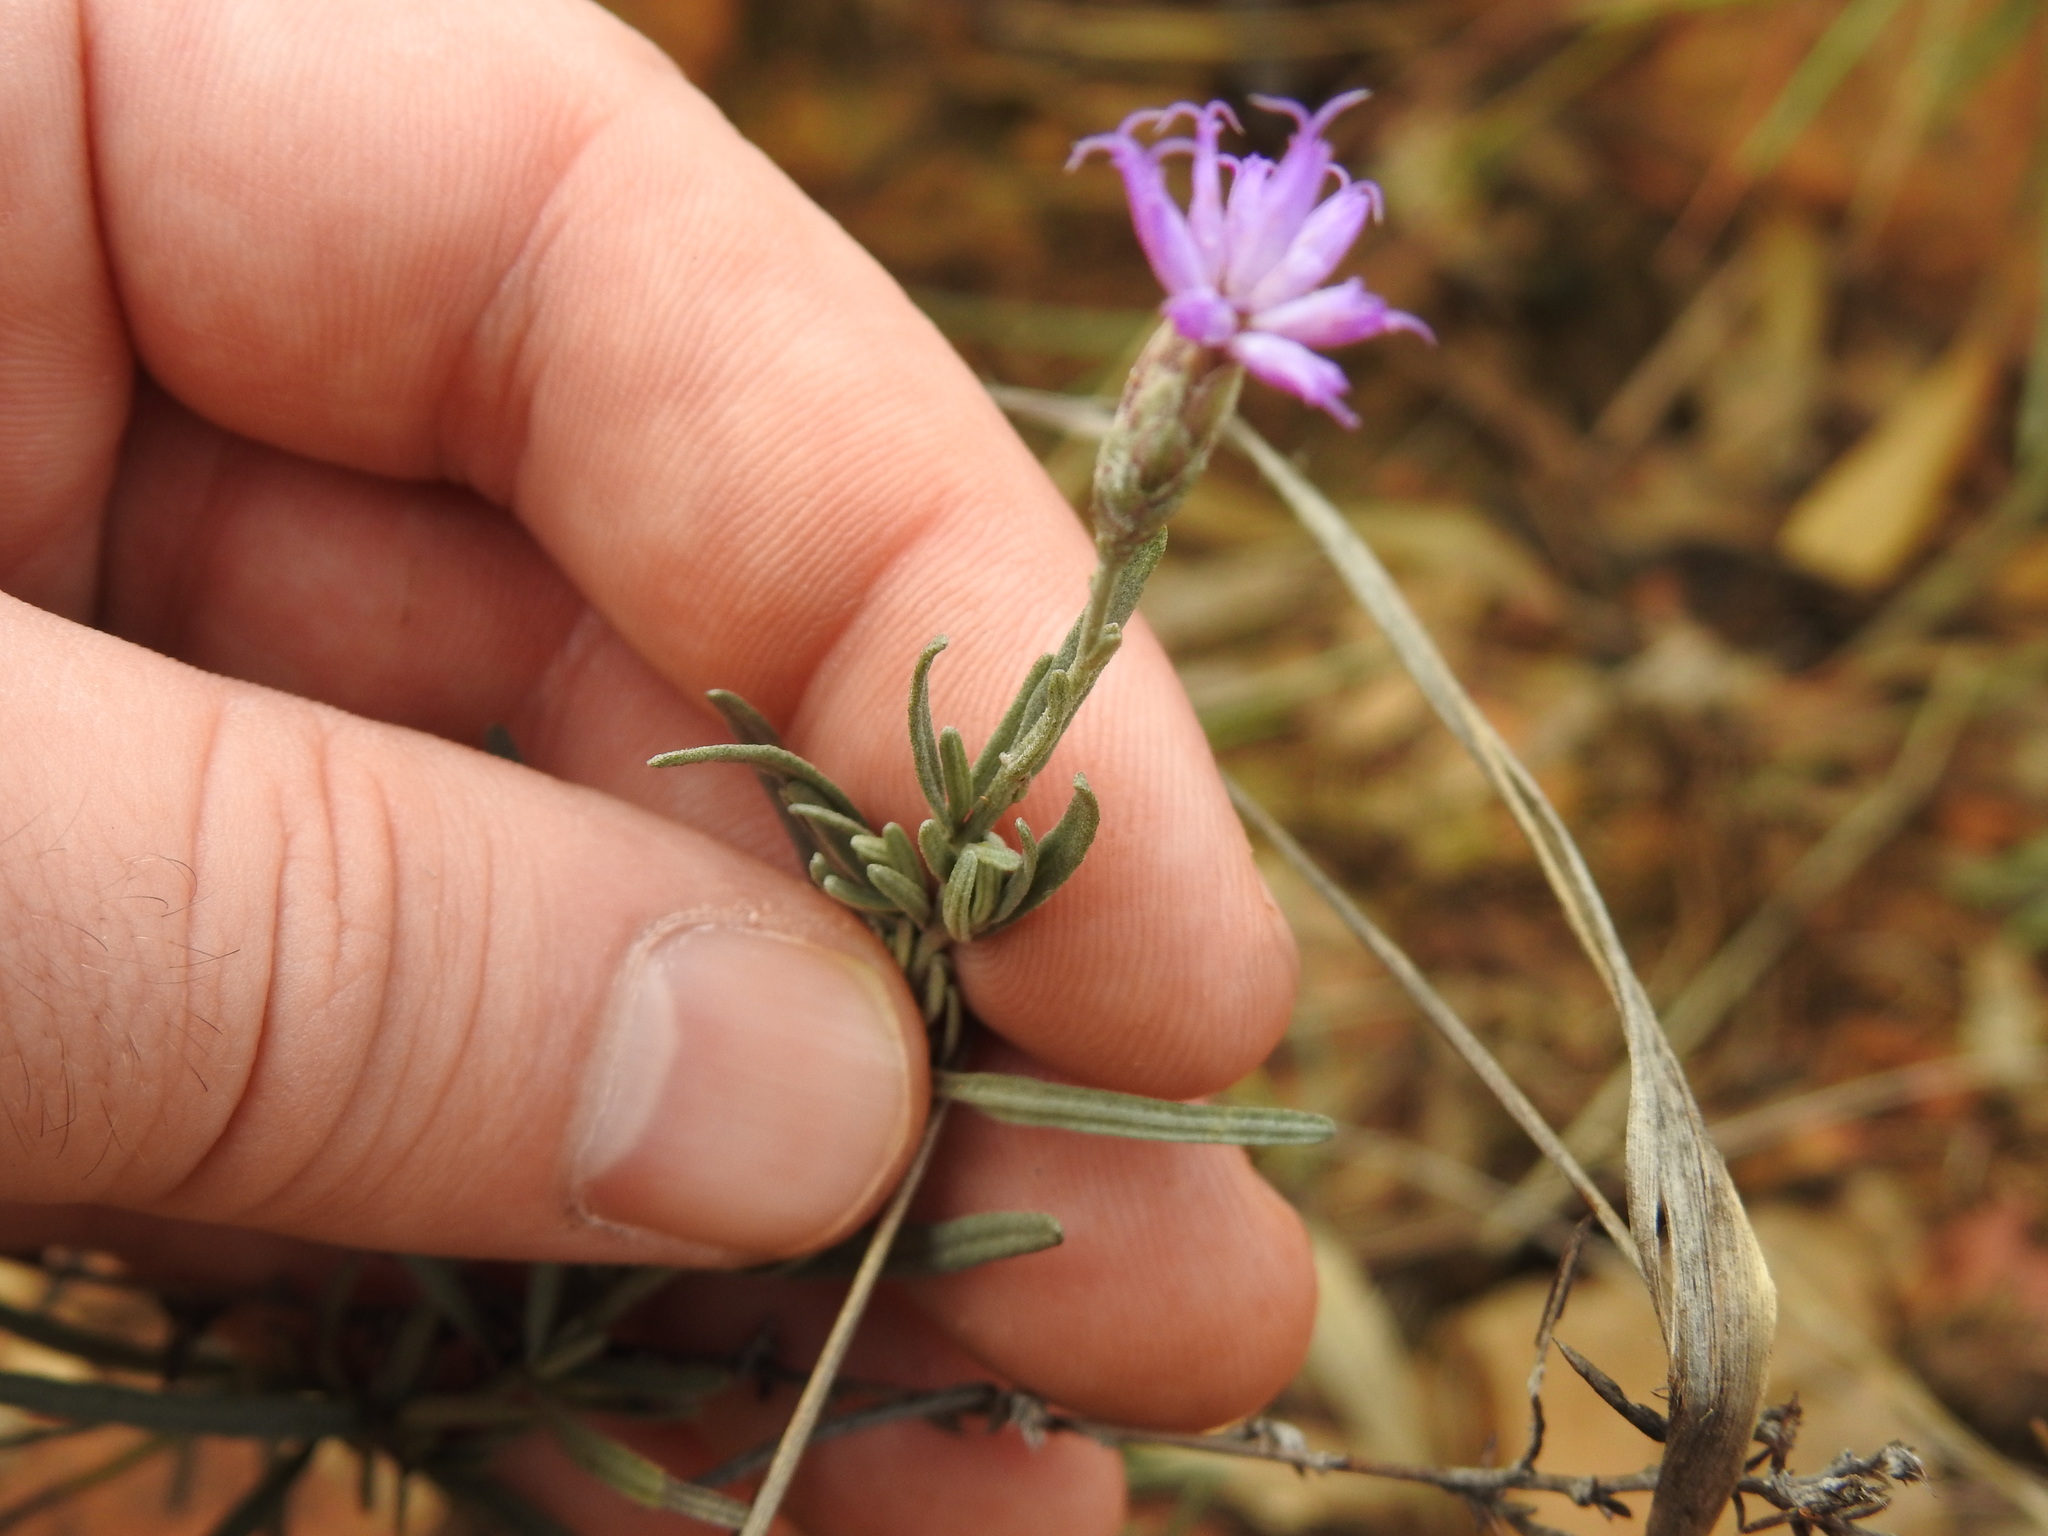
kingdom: Plantae
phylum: Tracheophyta
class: Magnoliopsida
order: Asterales
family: Asteraceae
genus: Crystallopollen
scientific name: Crystallopollen angustifolium
